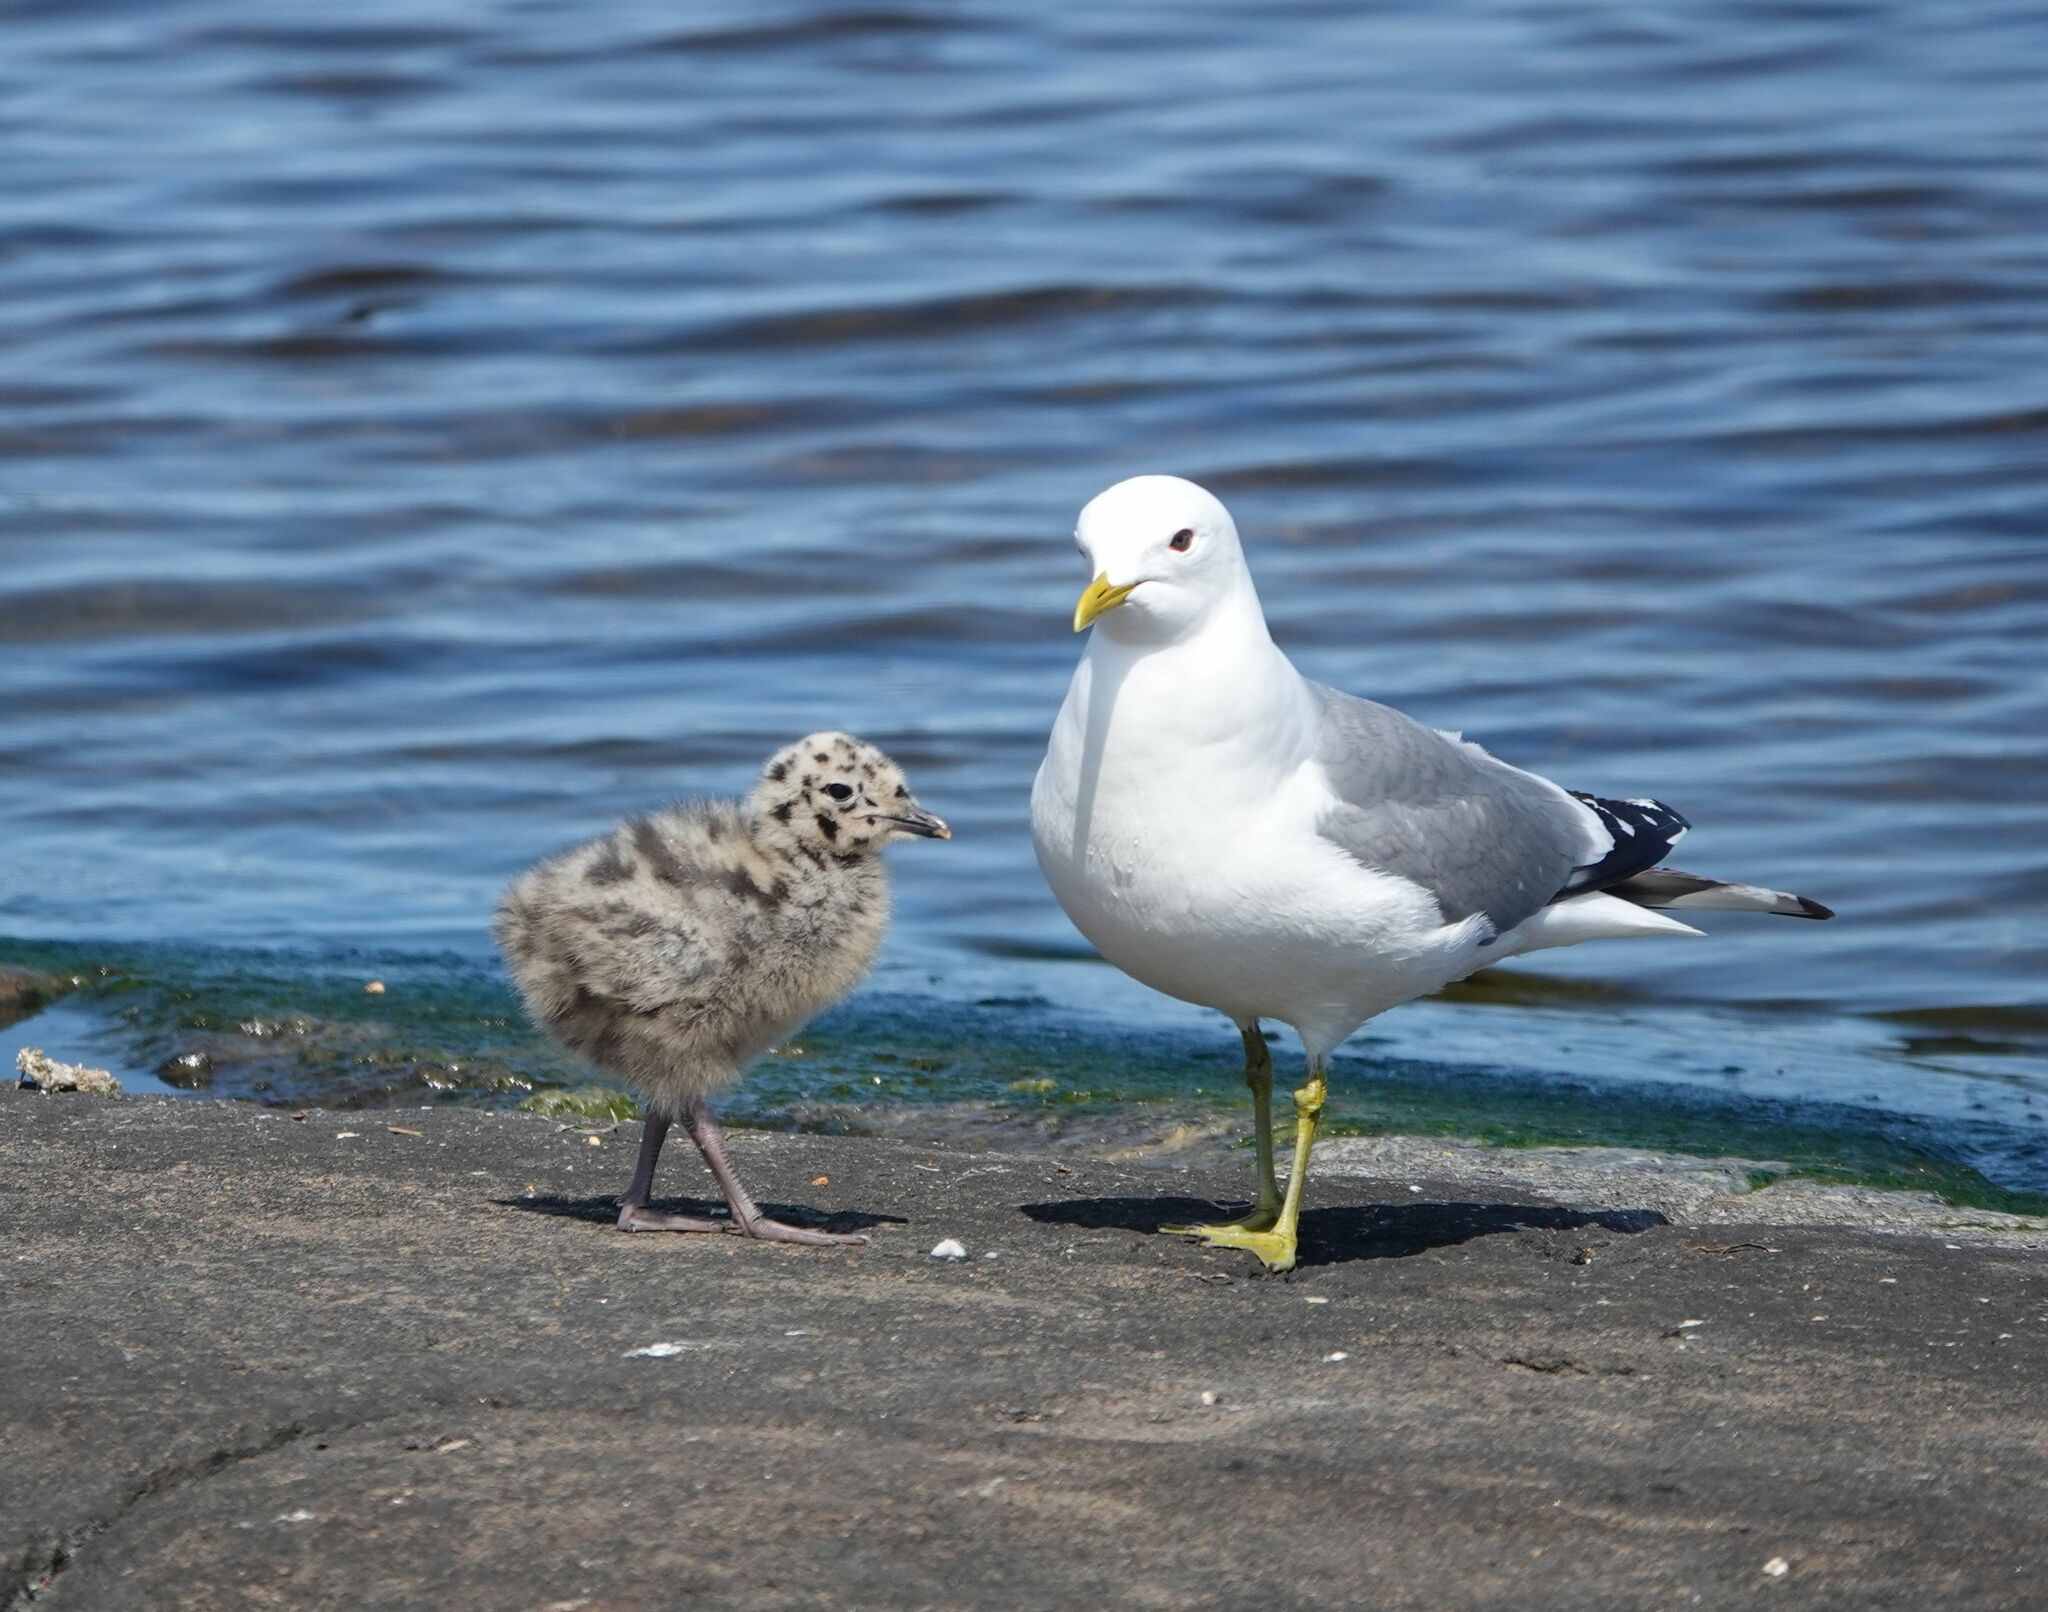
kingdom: Animalia
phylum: Chordata
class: Aves
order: Charadriiformes
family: Laridae
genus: Larus
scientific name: Larus canus
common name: Mew gull
